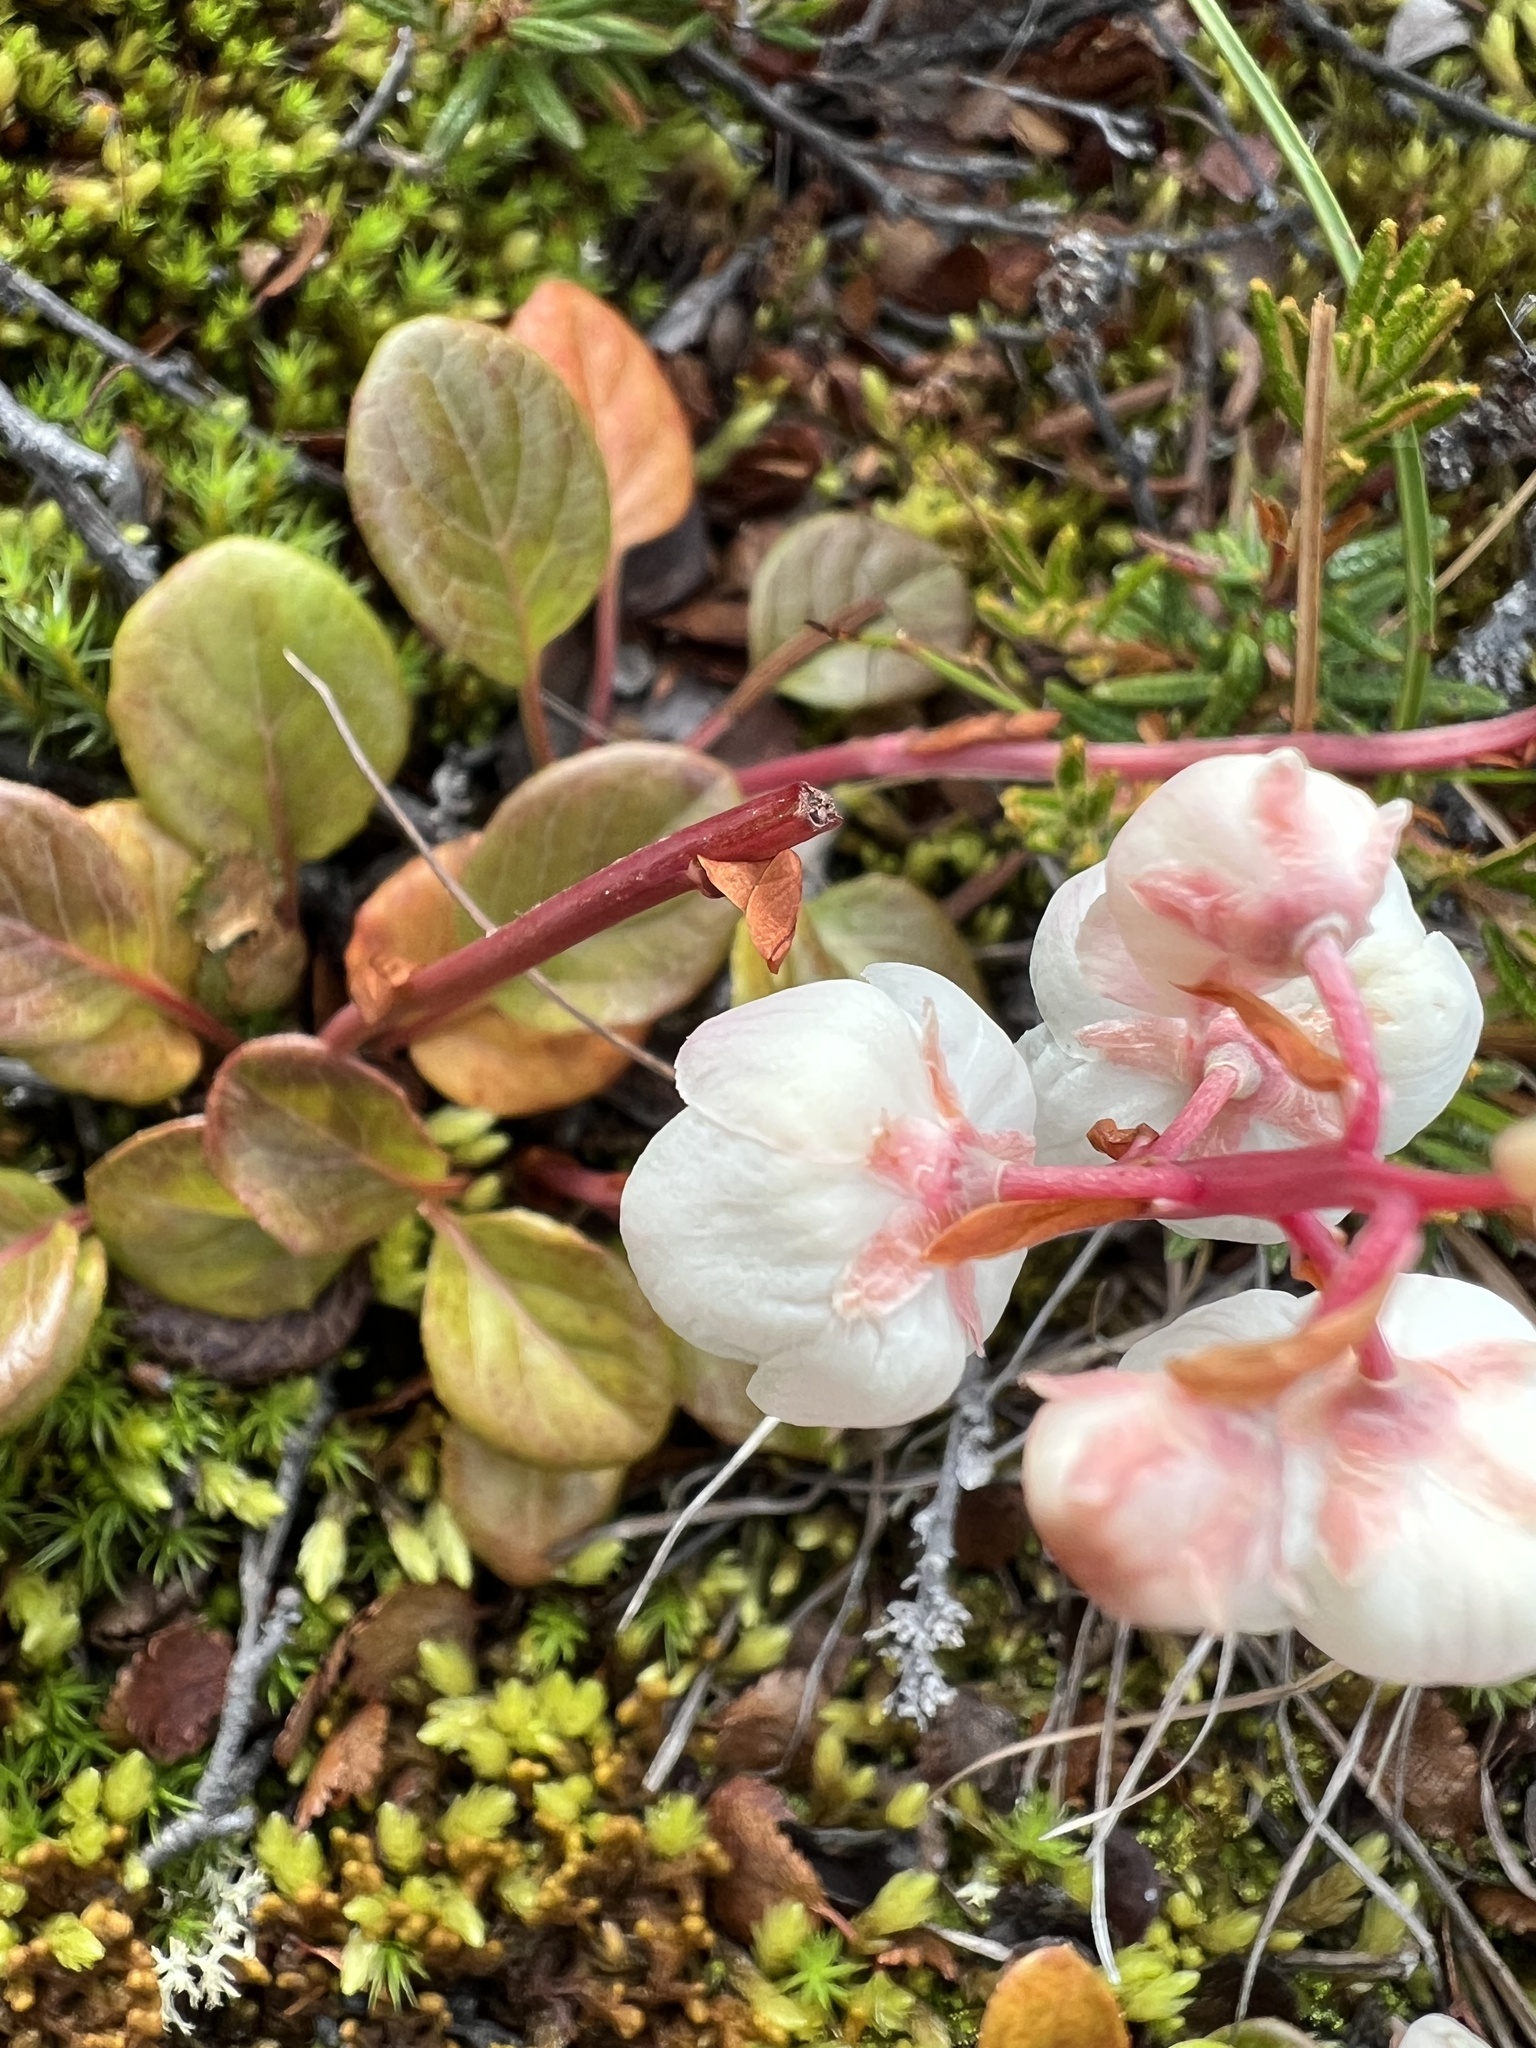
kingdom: Plantae
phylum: Tracheophyta
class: Magnoliopsida
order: Ericales
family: Ericaceae
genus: Pyrola
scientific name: Pyrola grandiflora
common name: Arctic pyrola
